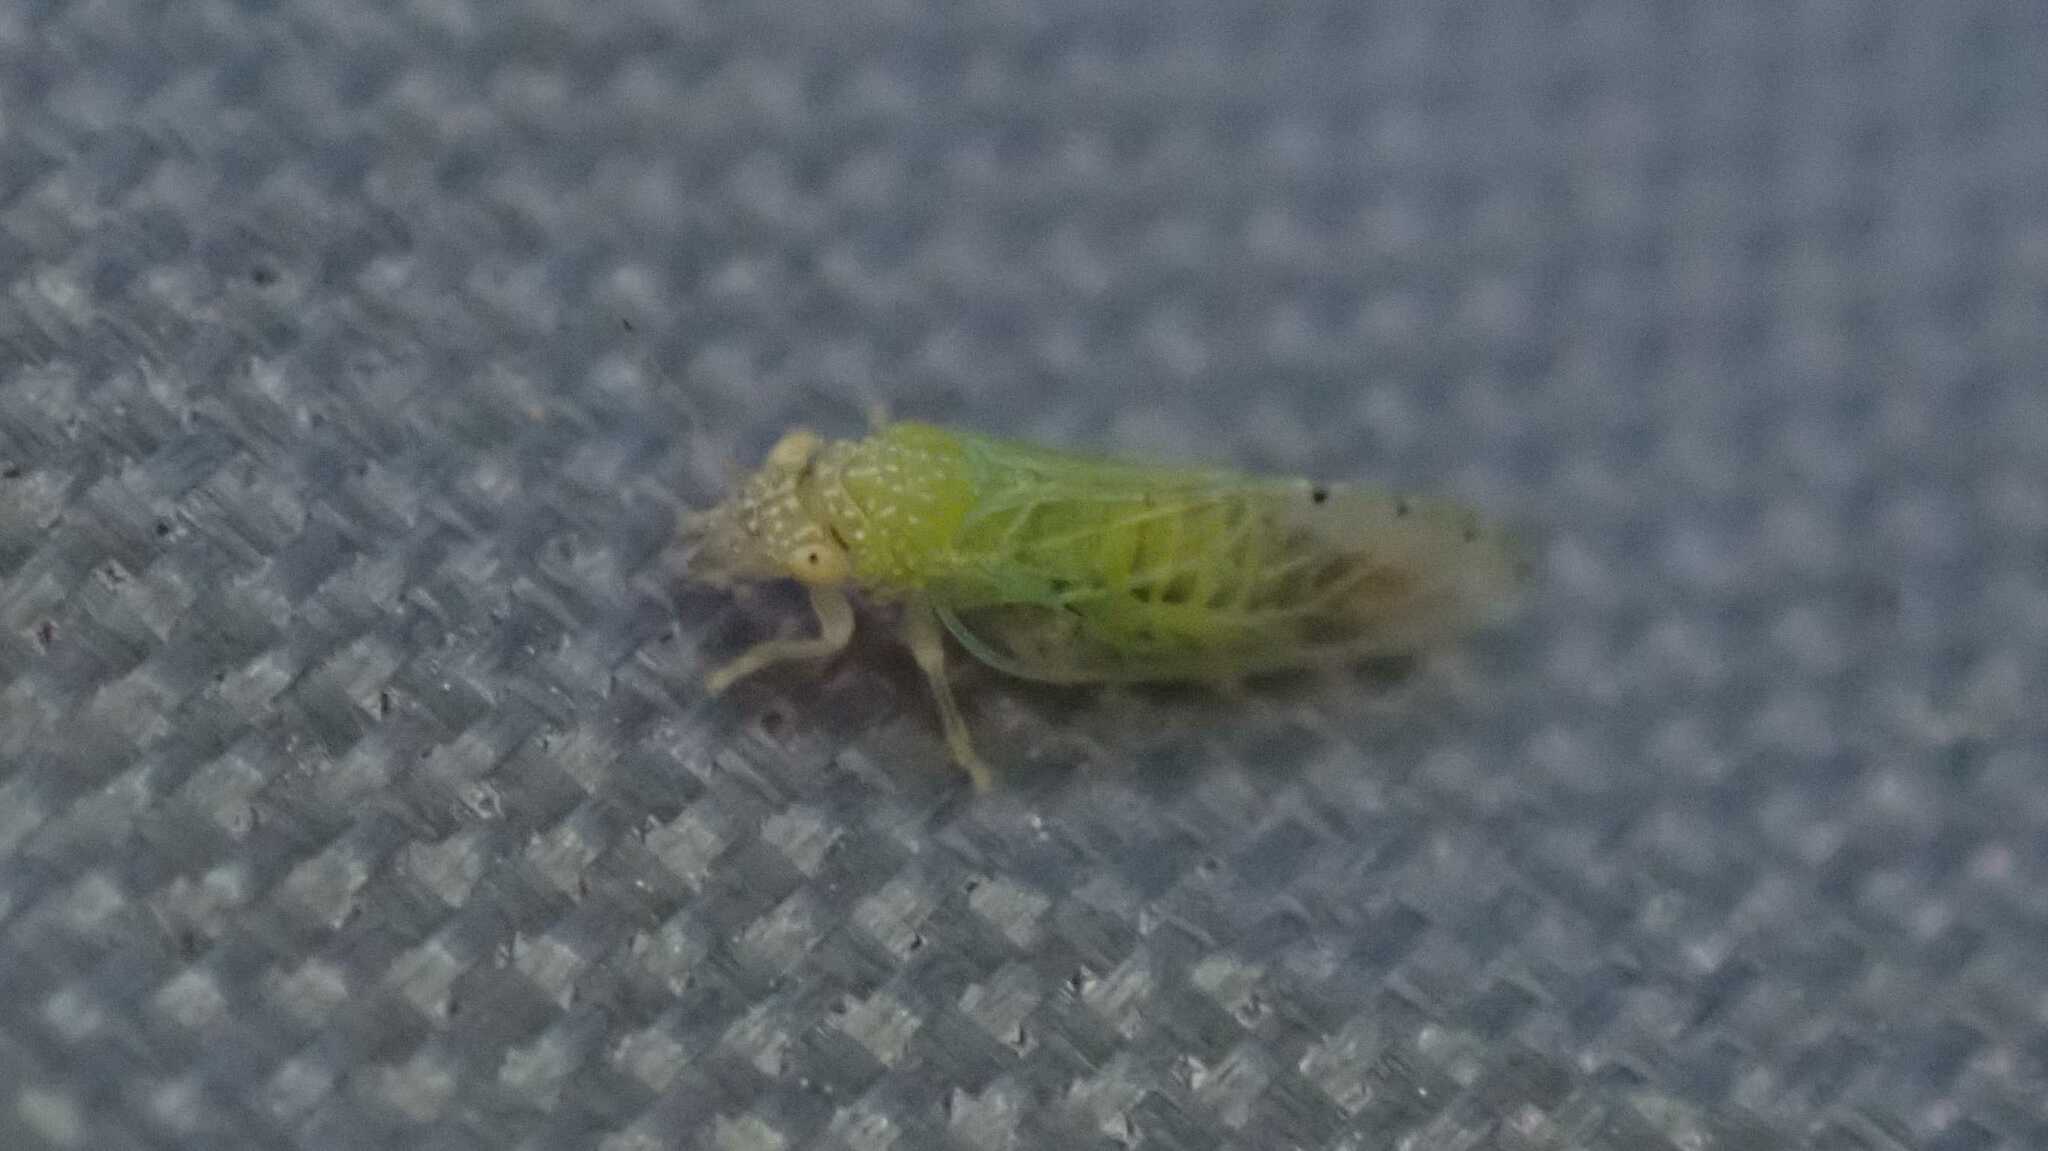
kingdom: Animalia
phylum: Arthropoda
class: Insecta
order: Hemiptera
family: Psyllidae
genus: Spanioneura
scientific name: Spanioneura fonscolombii
